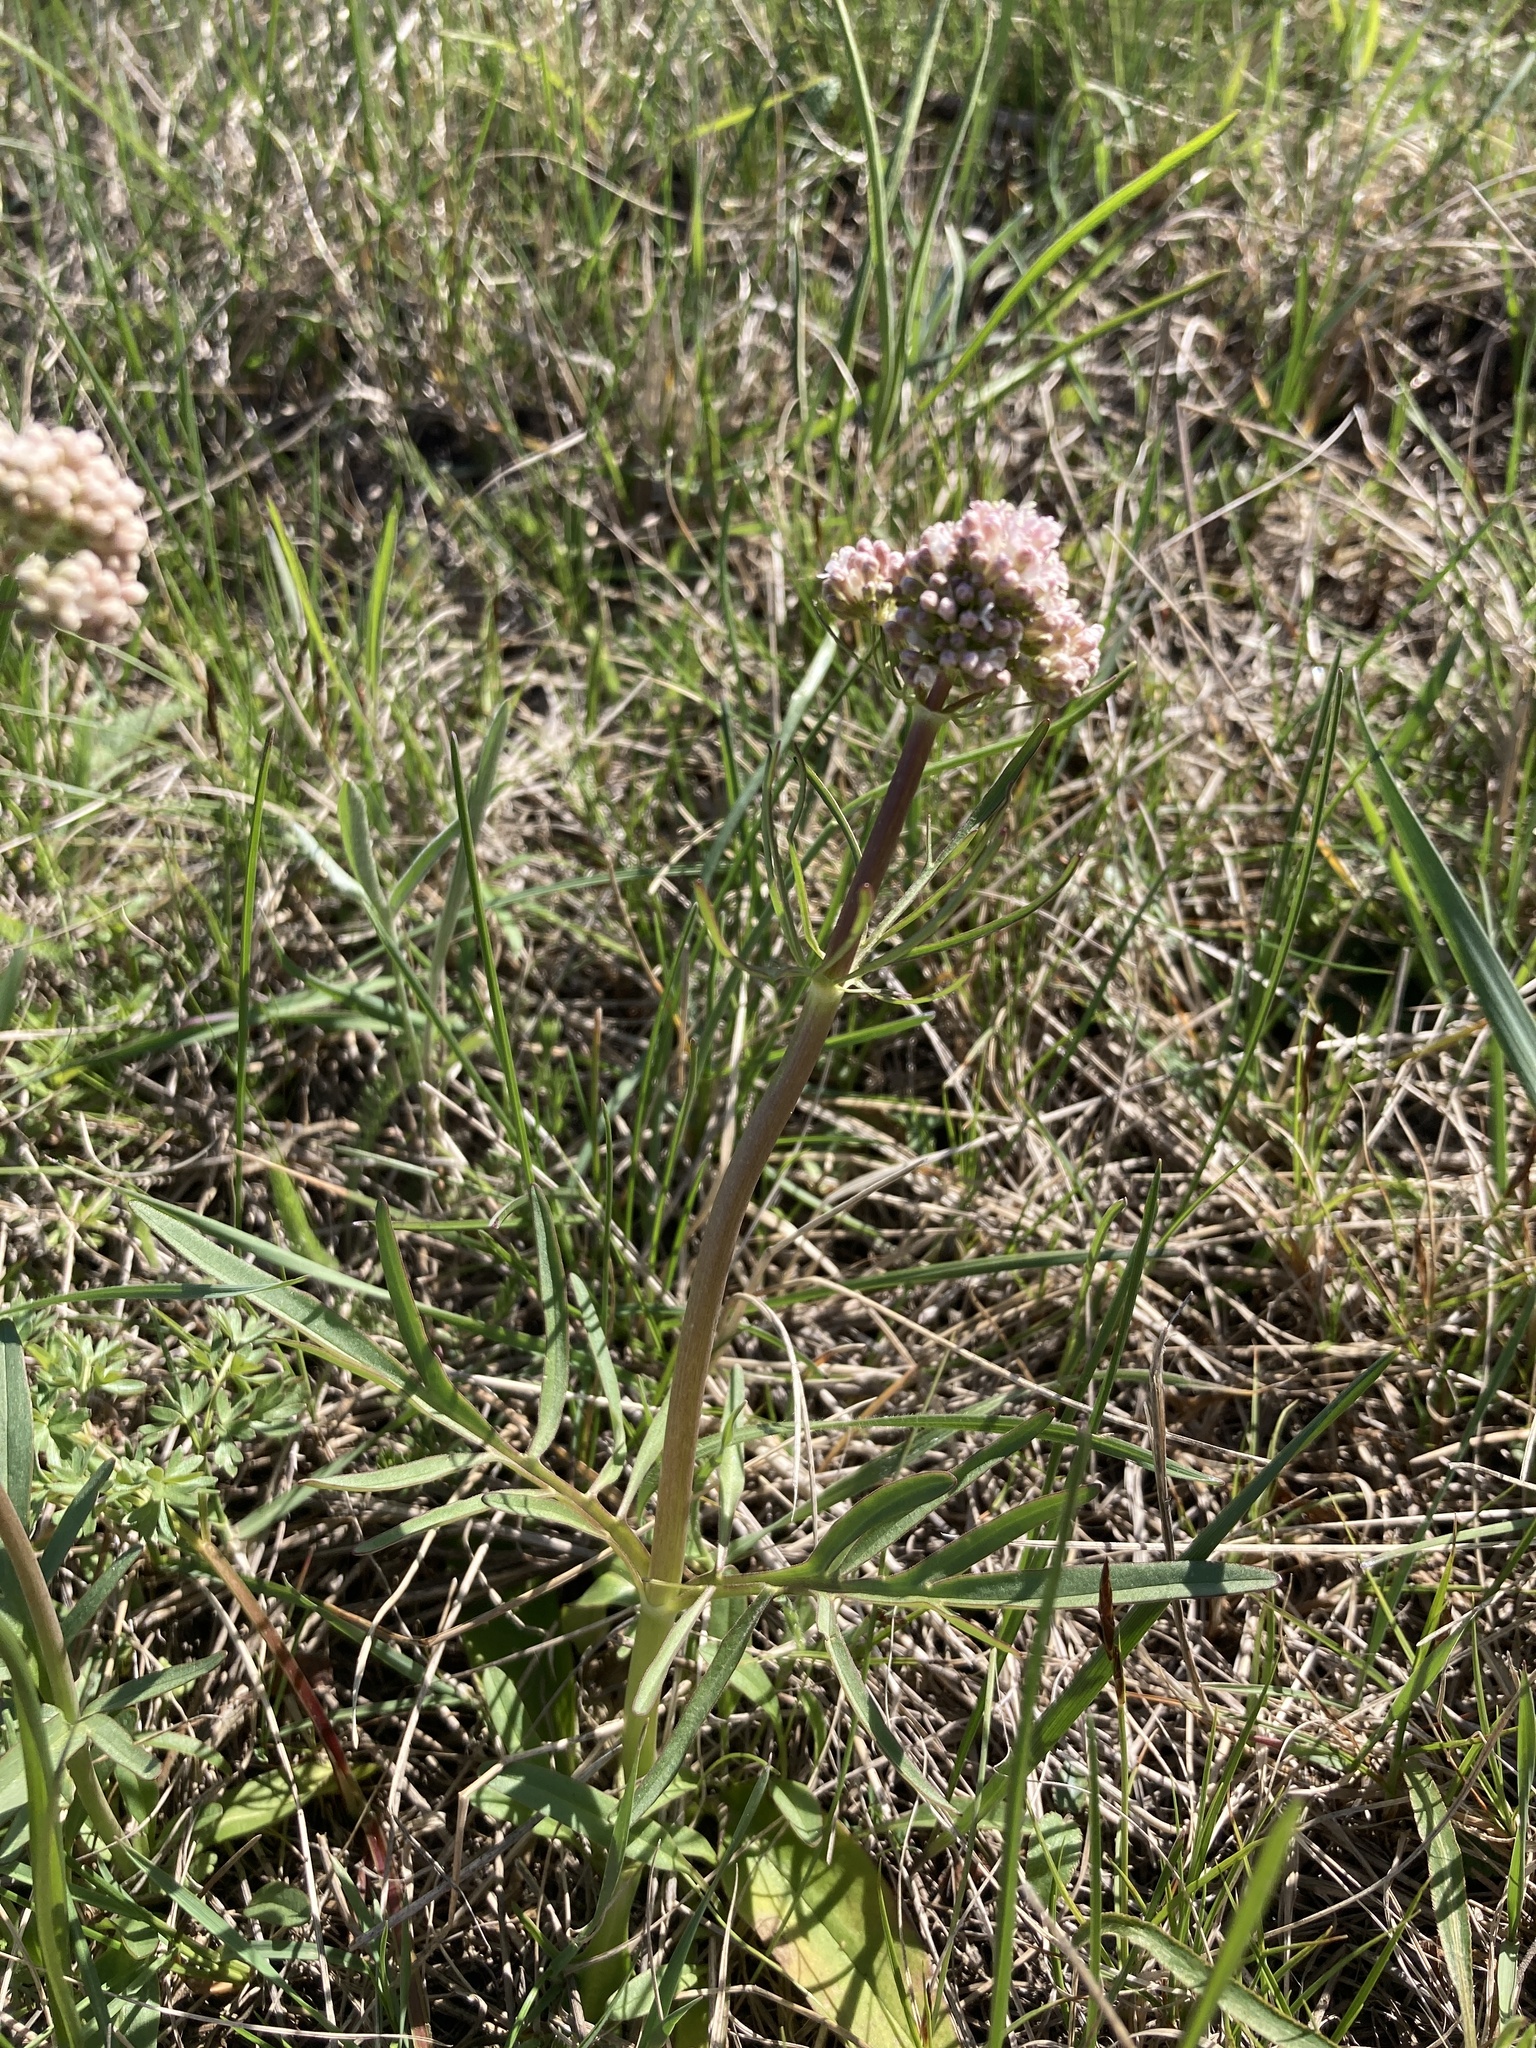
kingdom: Plantae
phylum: Tracheophyta
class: Magnoliopsida
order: Dipsacales
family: Caprifoliaceae
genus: Valeriana
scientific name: Valeriana tuberosa
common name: Tuberous valerian
